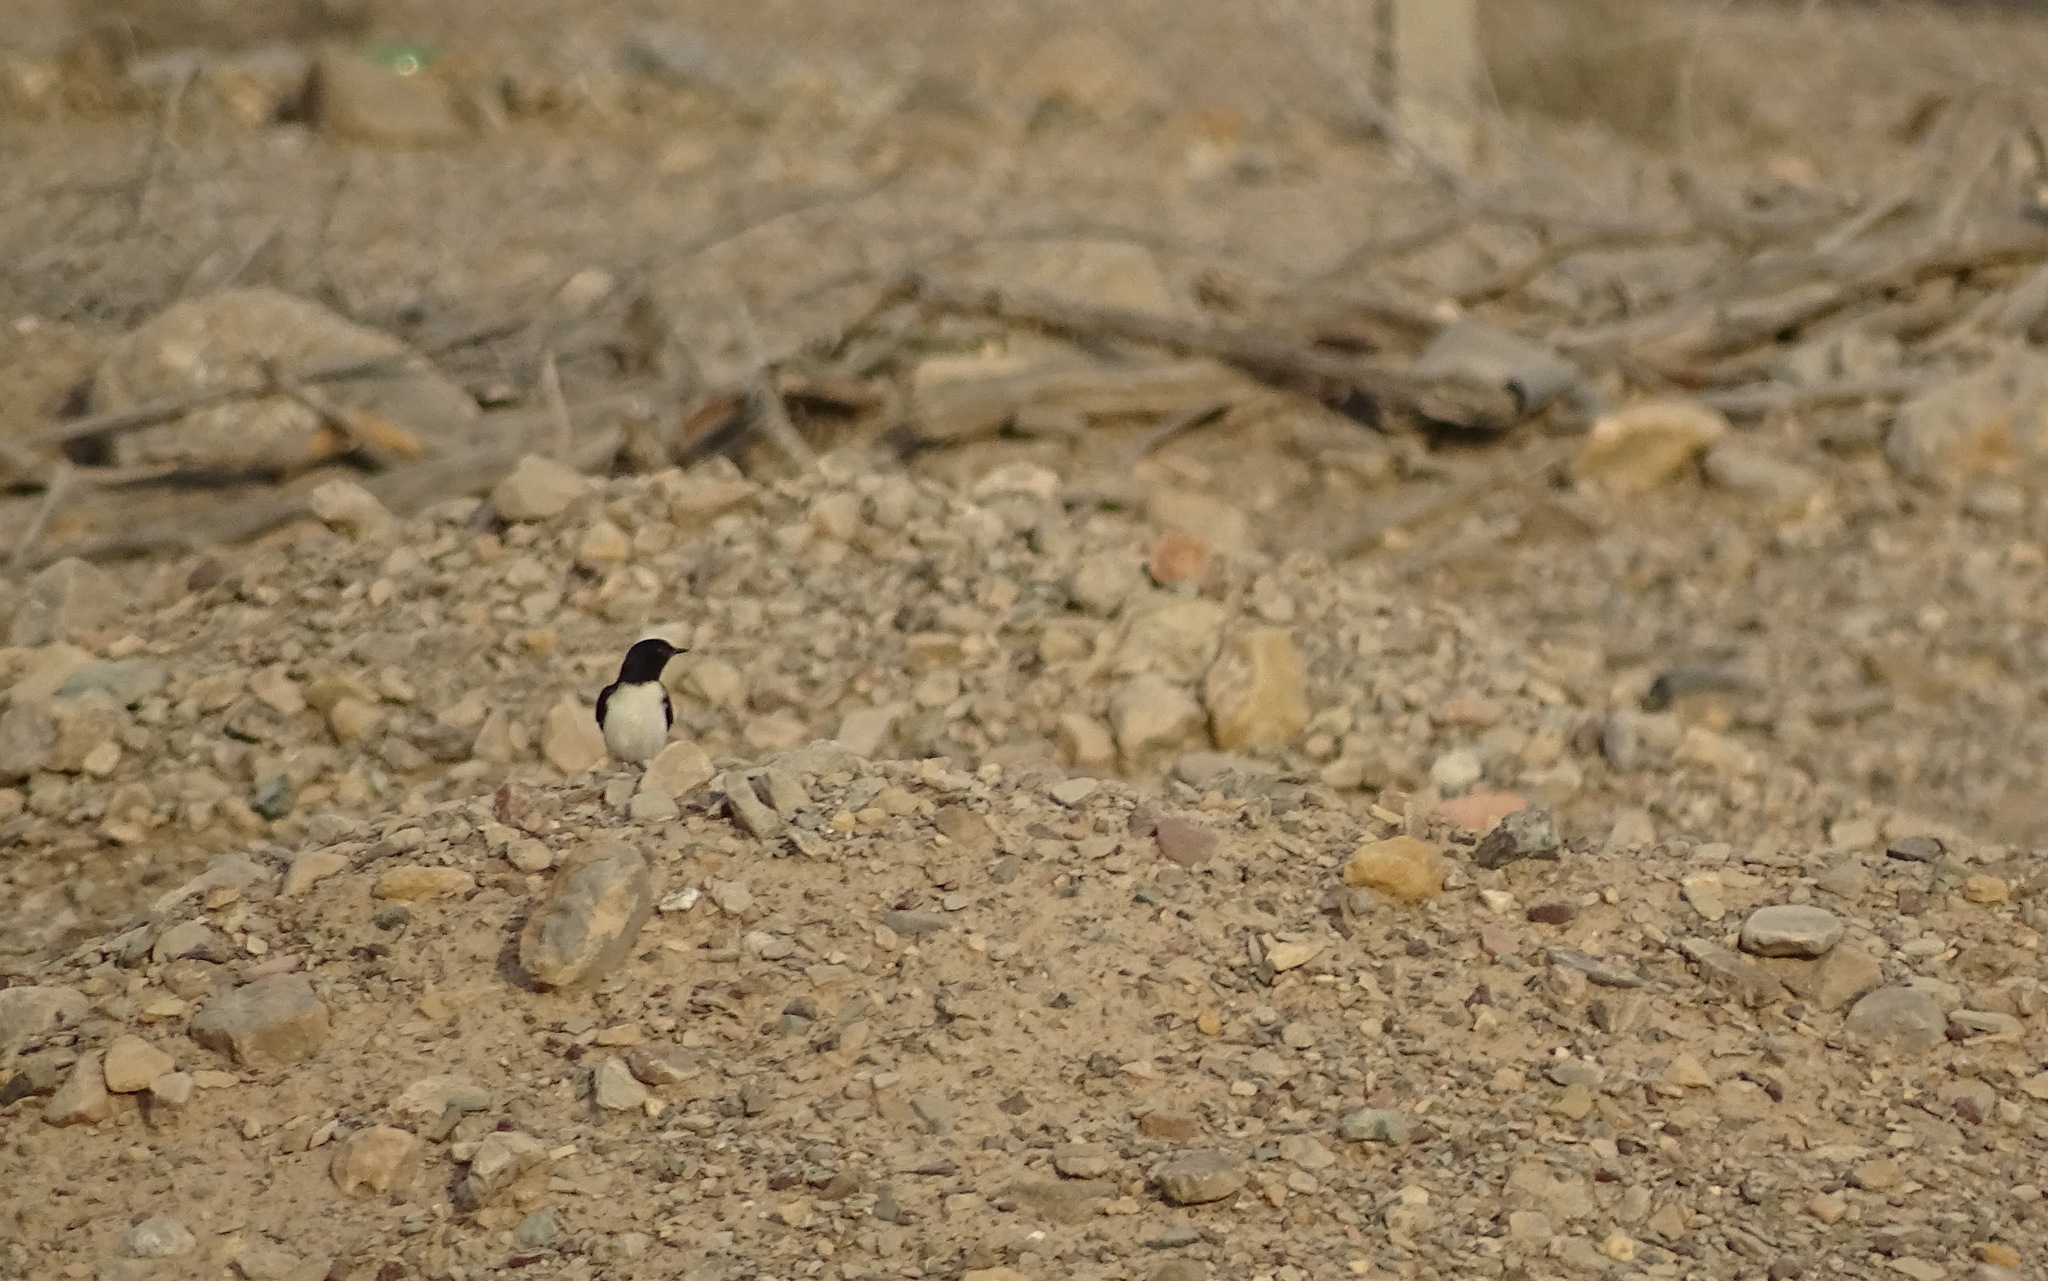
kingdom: Animalia
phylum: Chordata
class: Aves
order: Passeriformes
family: Muscicapidae
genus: Oenanthe
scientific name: Oenanthe albonigra
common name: Hume's wheatear
